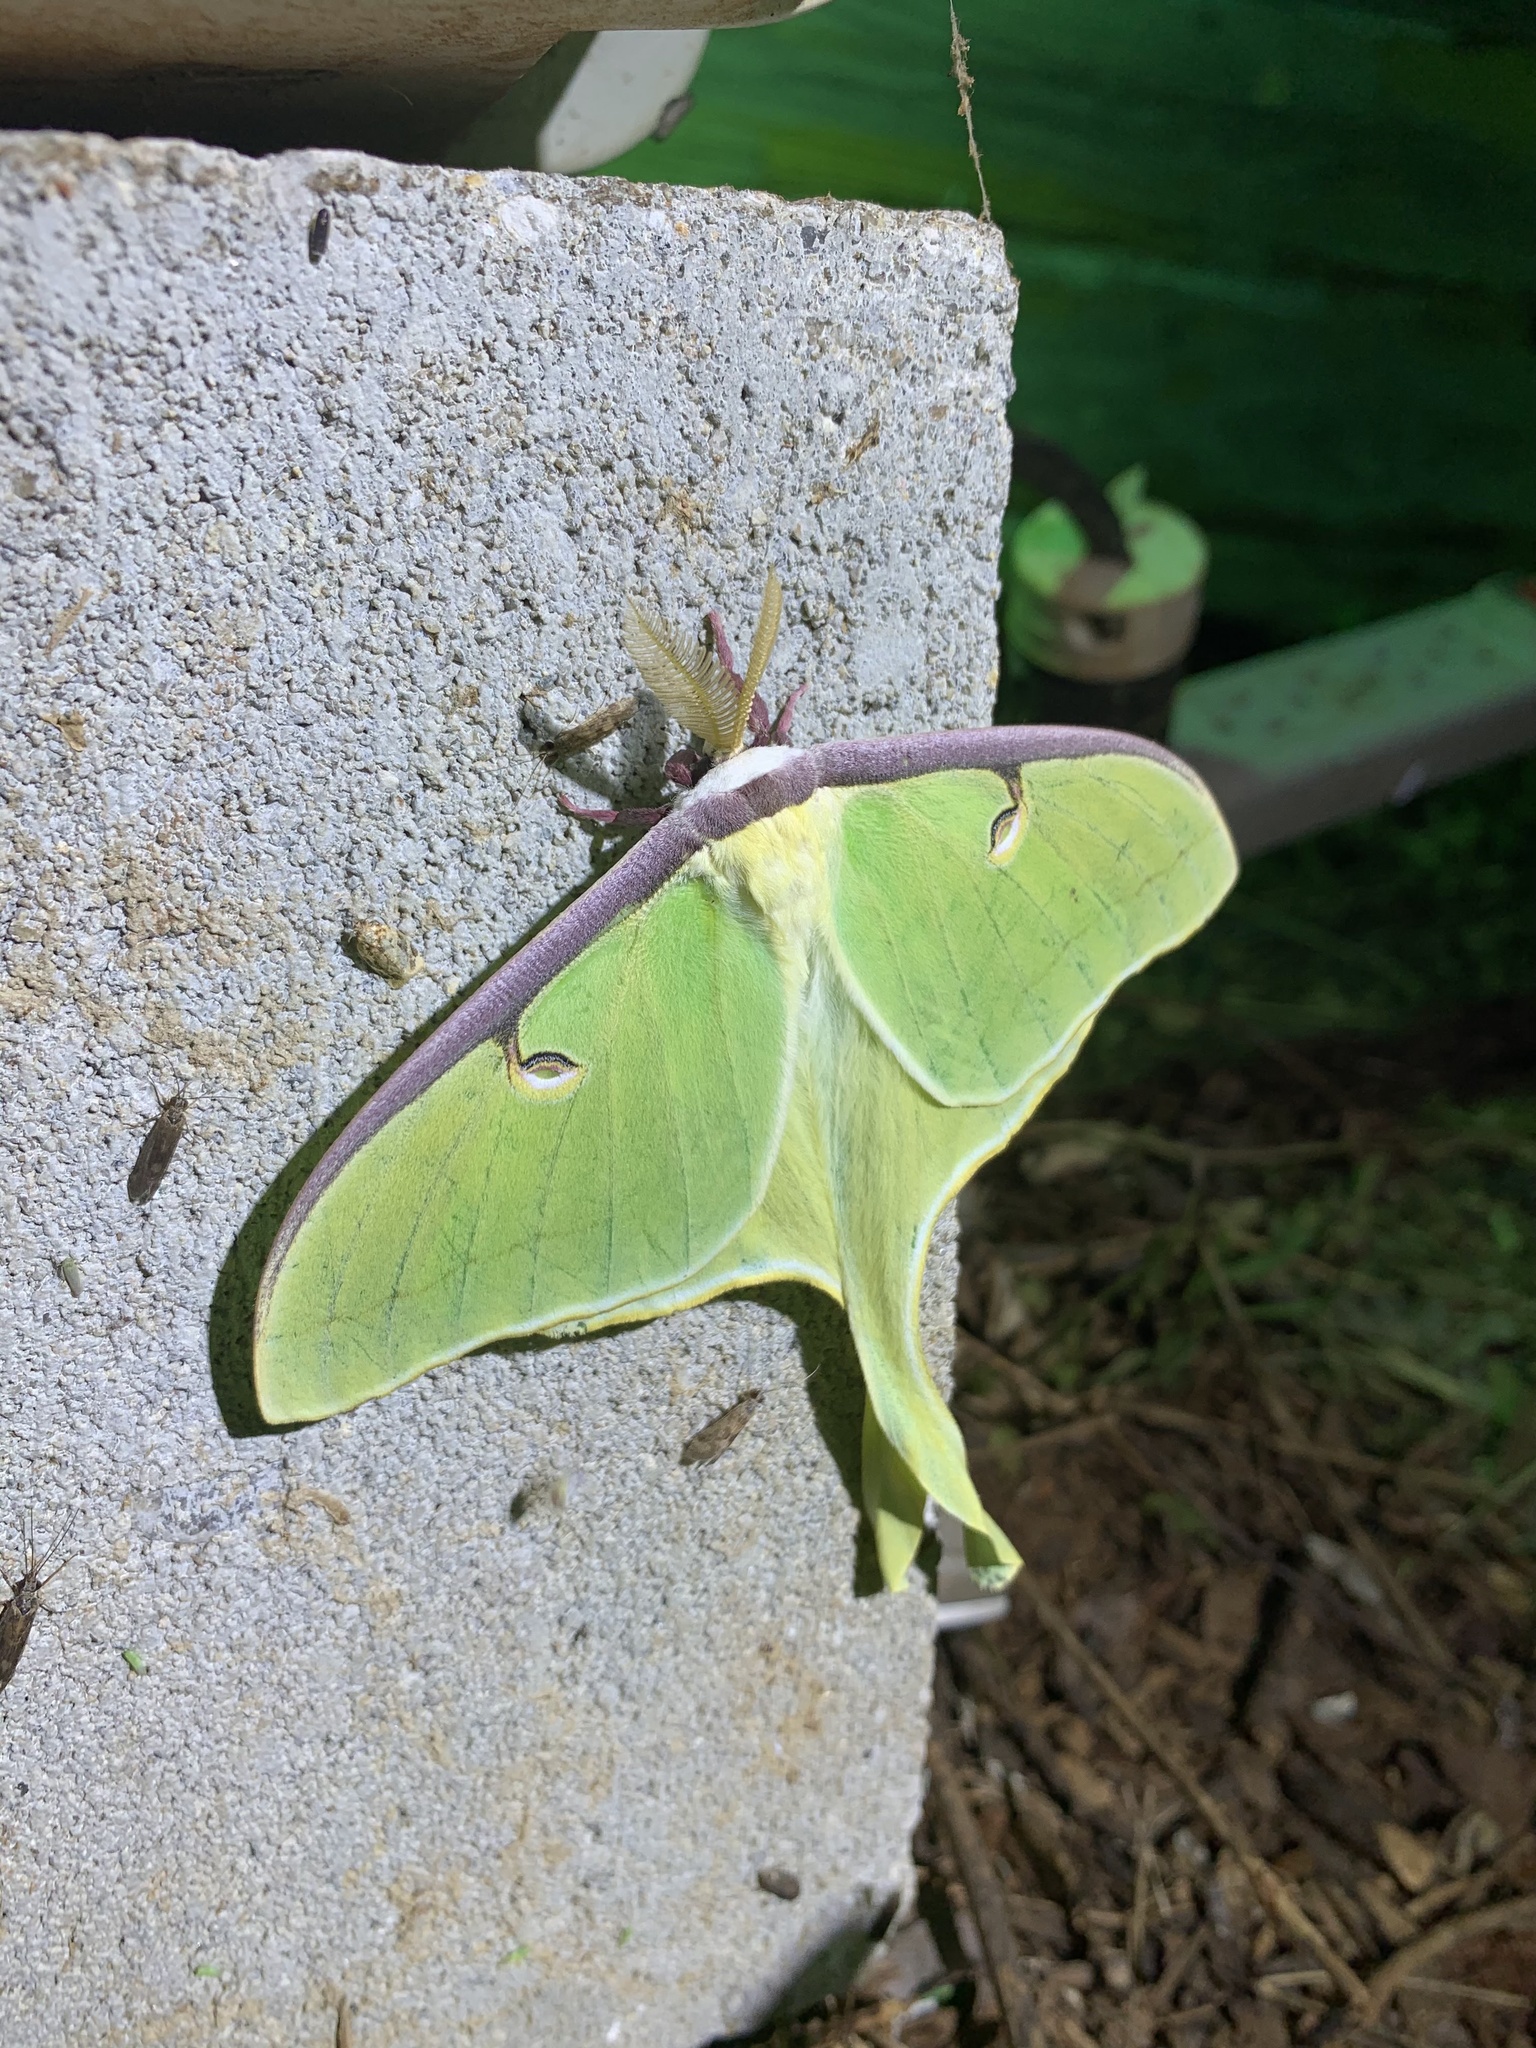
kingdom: Animalia
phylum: Arthropoda
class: Insecta
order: Lepidoptera
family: Saturniidae
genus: Actias
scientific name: Actias luna
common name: Luna moth
